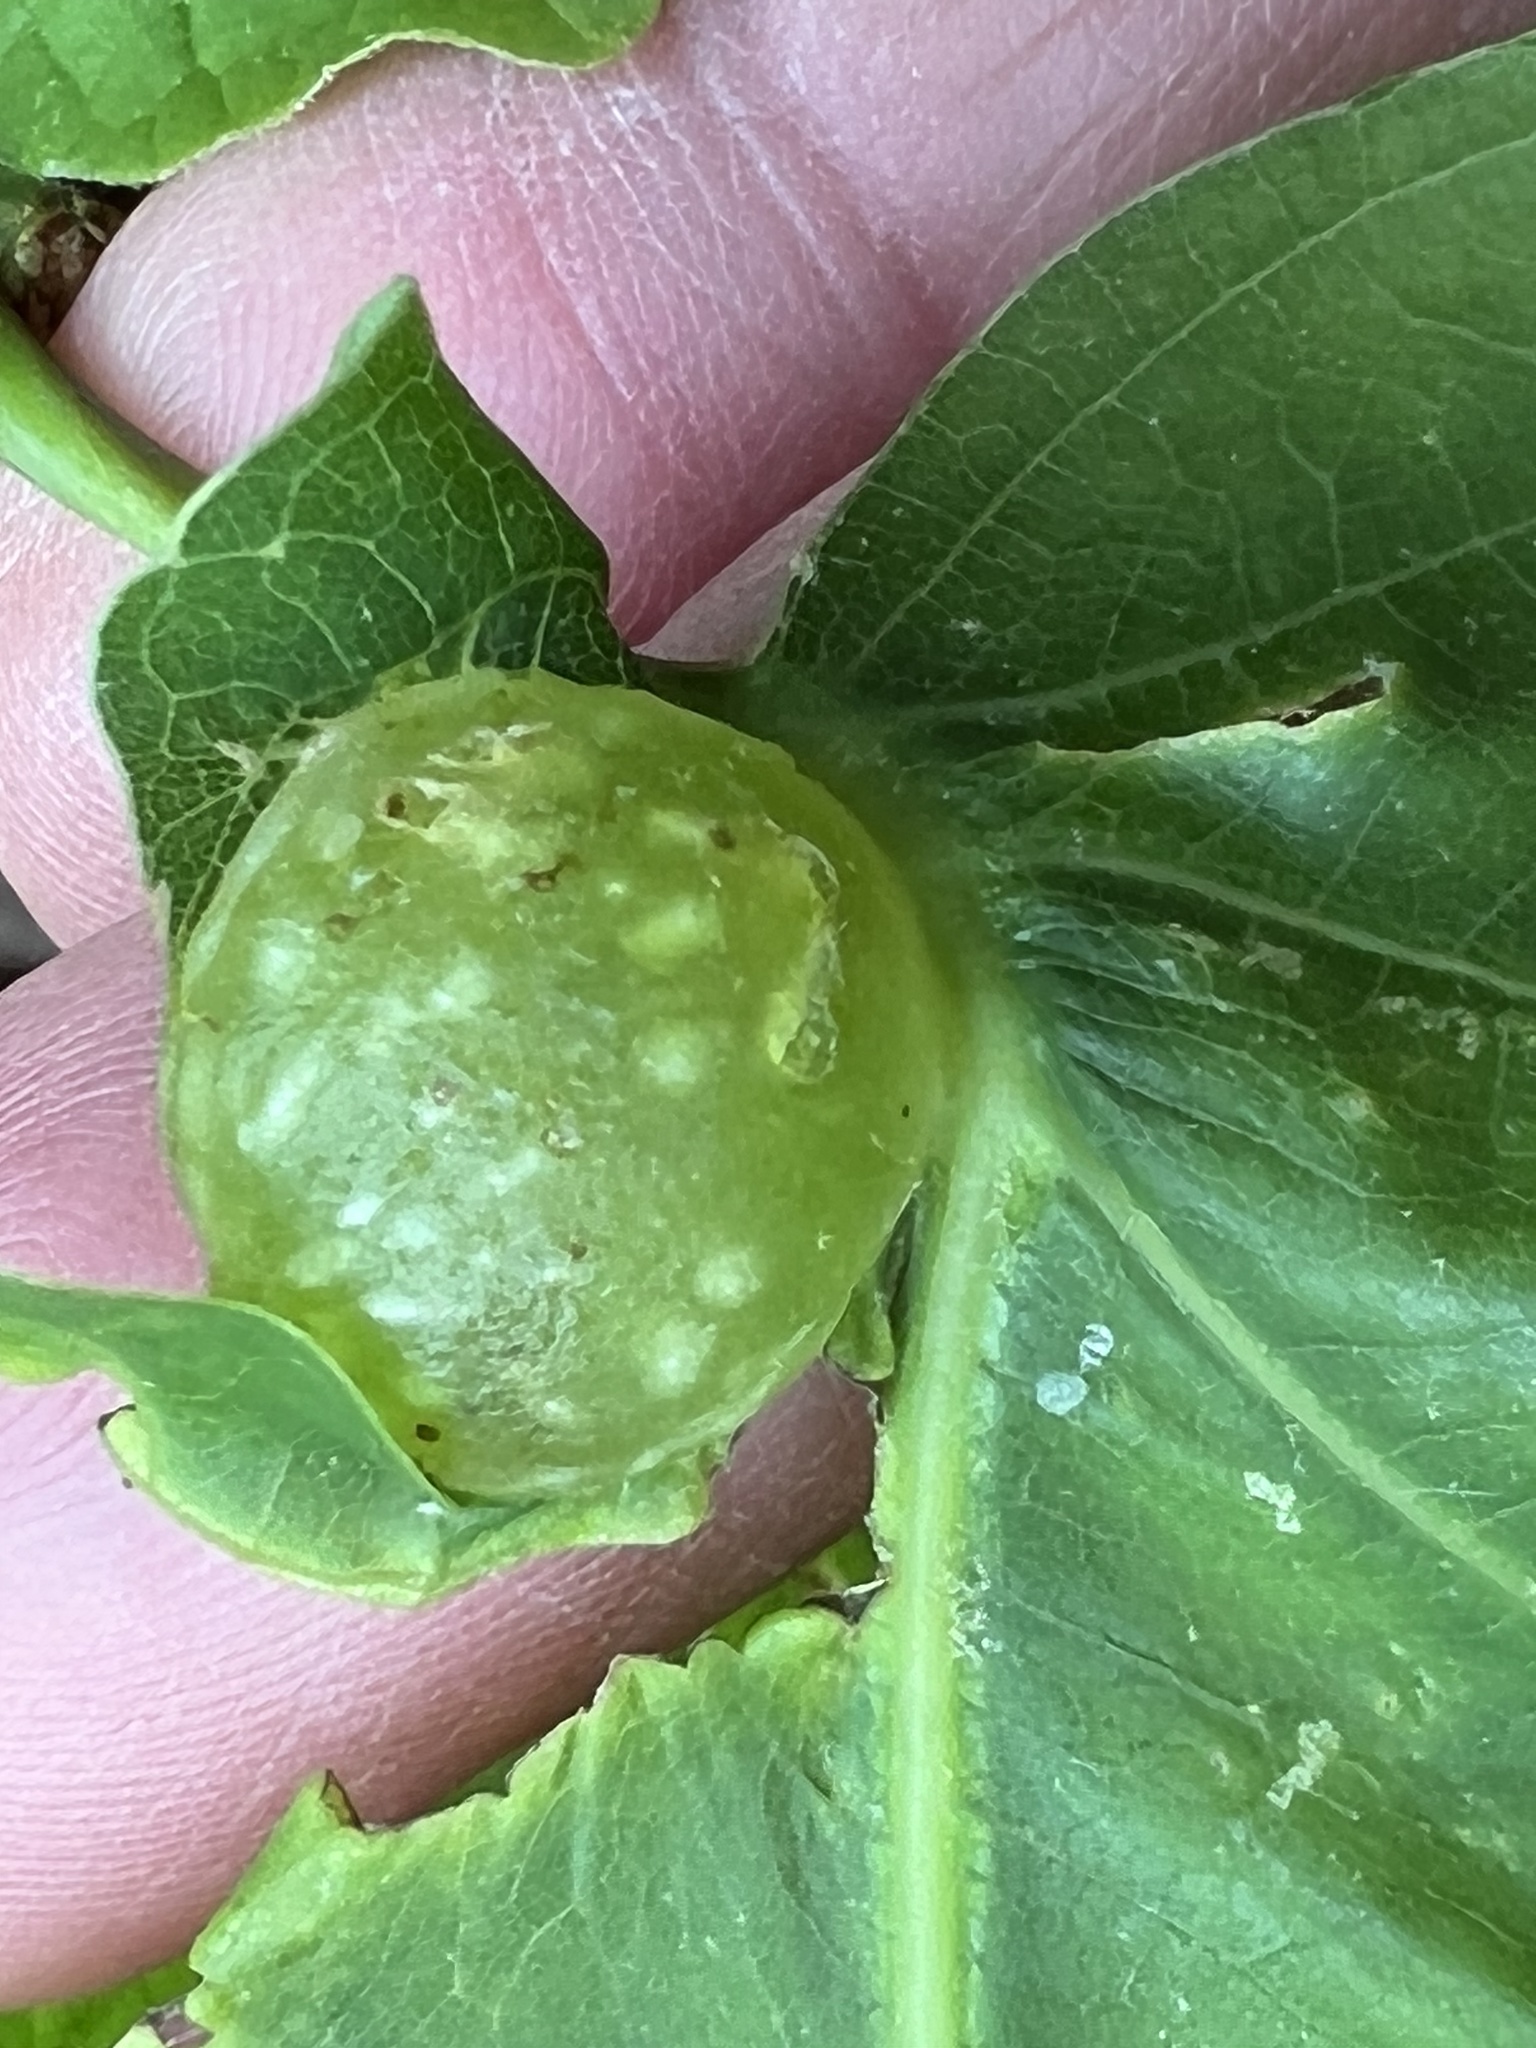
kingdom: Animalia
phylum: Arthropoda
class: Insecta
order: Hymenoptera
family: Cynipidae
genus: Dryocosmus
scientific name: Dryocosmus quercuspalustris
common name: Succulent oak gall wasp
